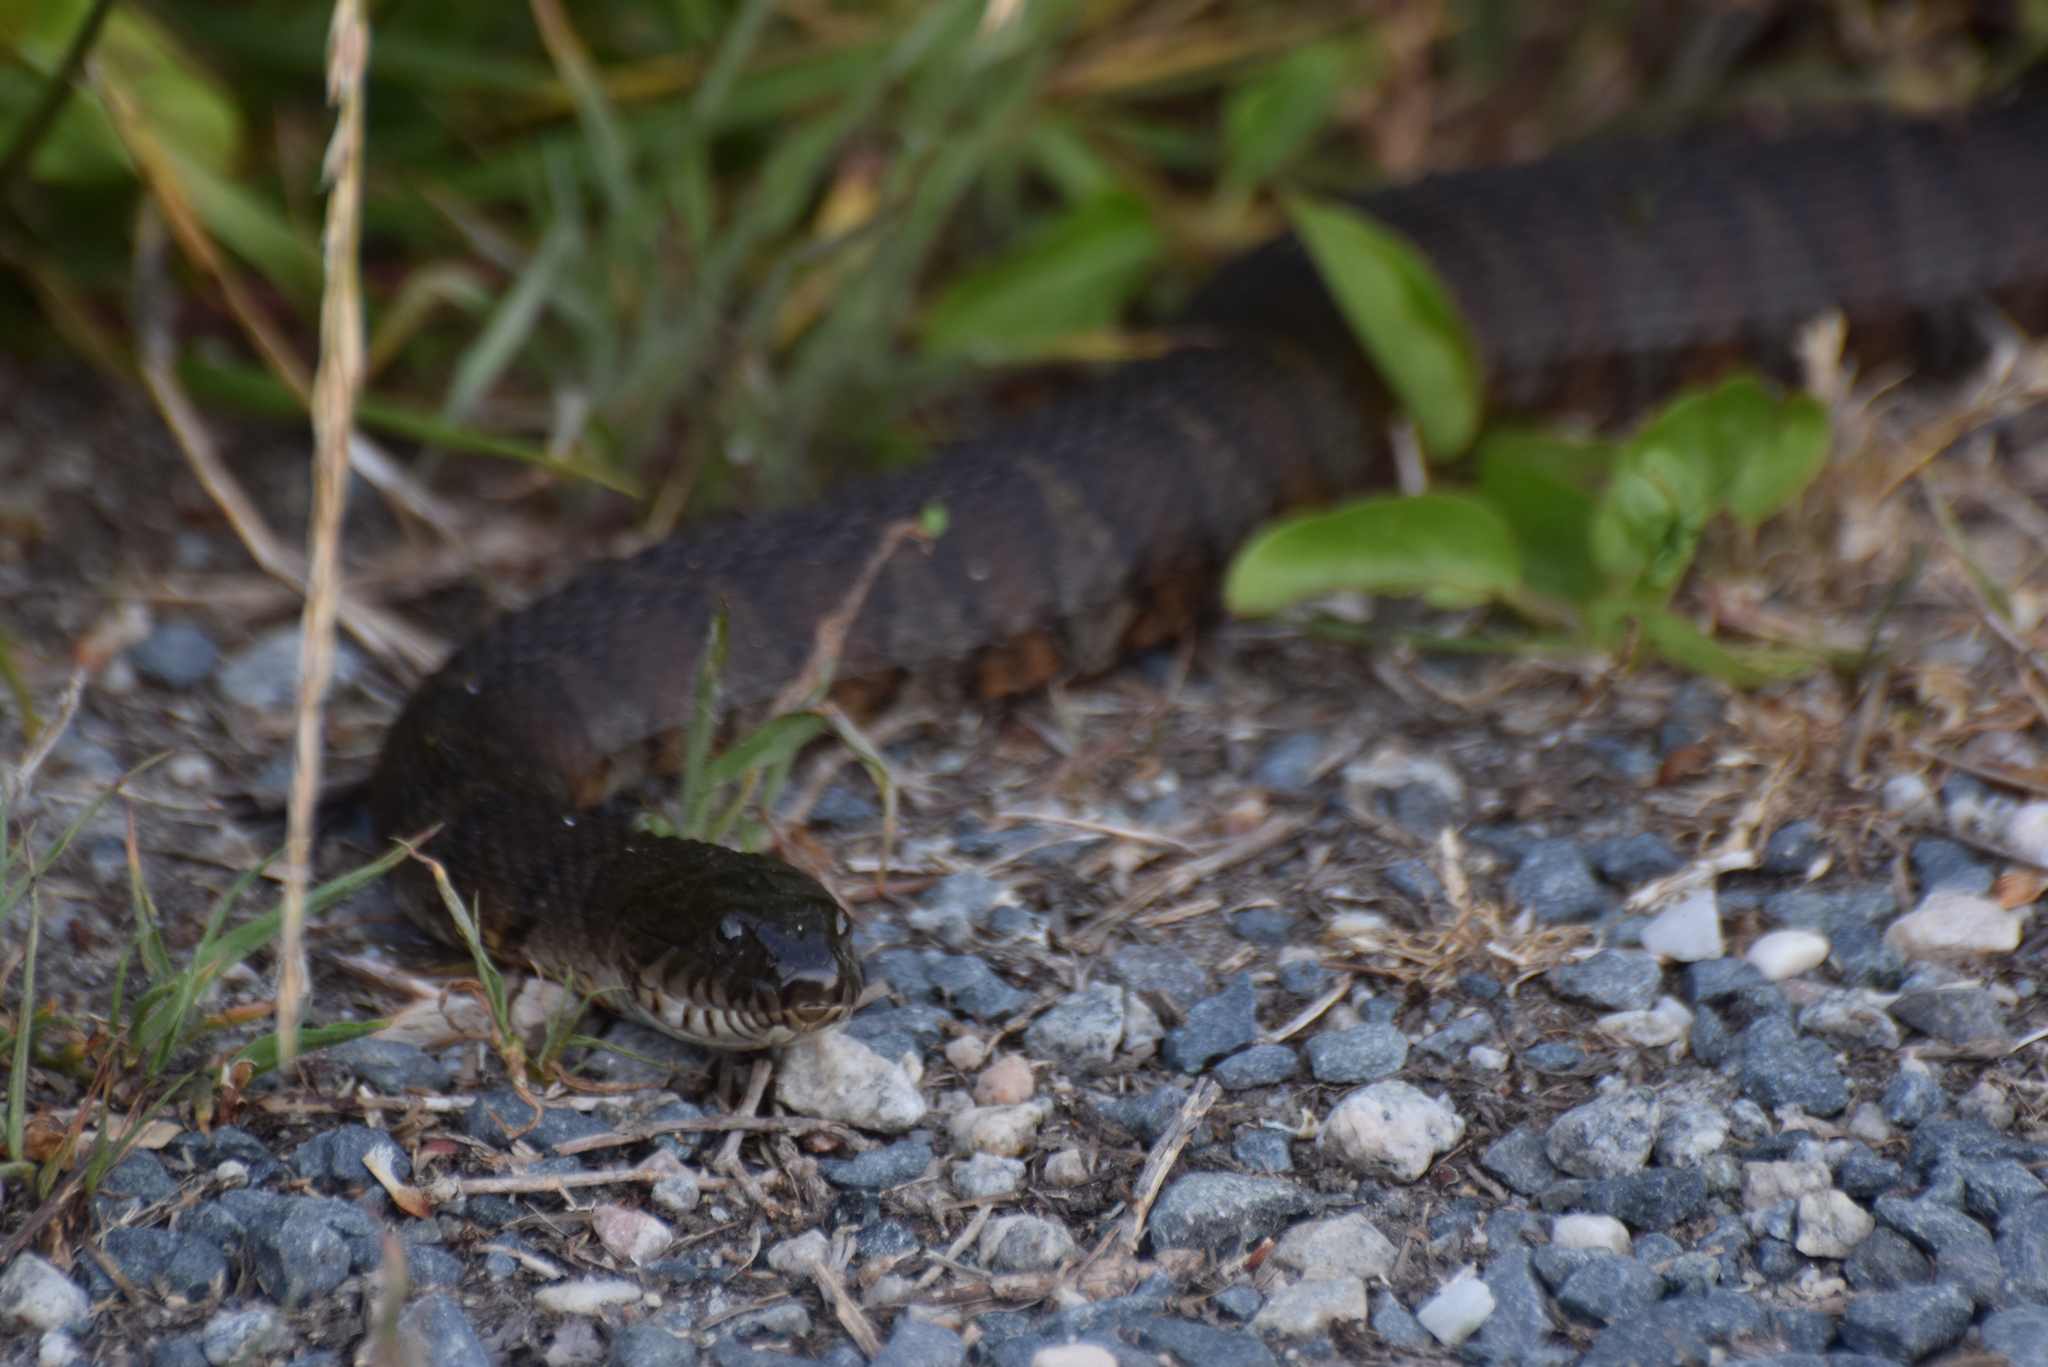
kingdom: Animalia
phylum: Chordata
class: Squamata
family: Colubridae
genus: Nerodia
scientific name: Nerodia sipedon
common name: Northern water snake
